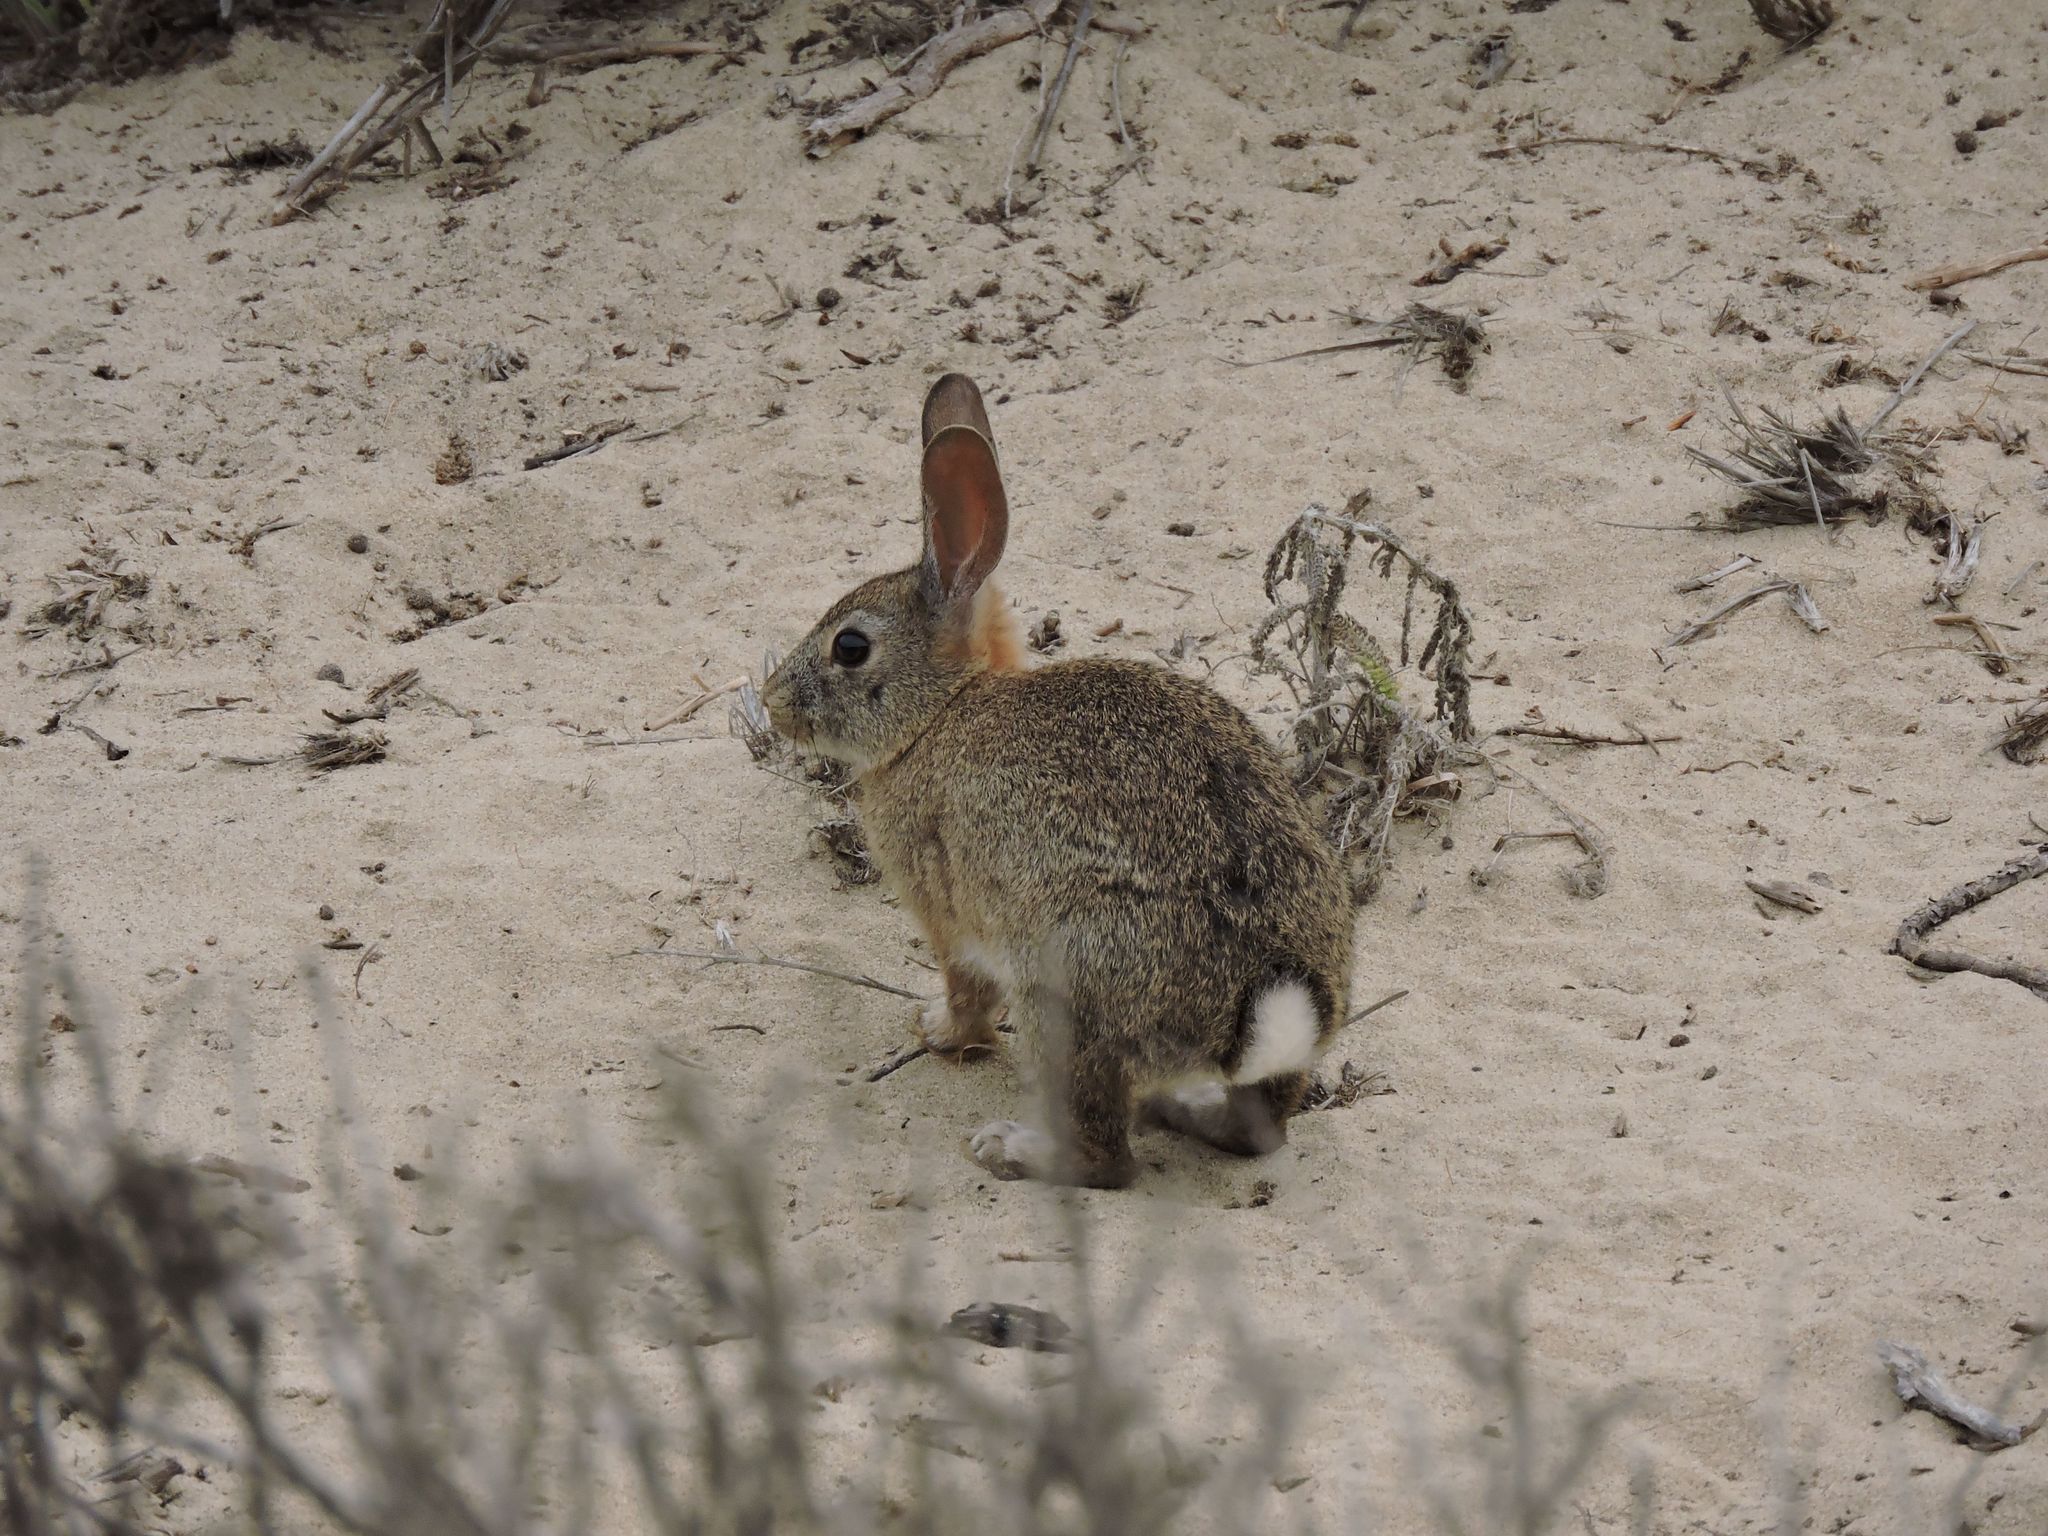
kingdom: Animalia
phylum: Chordata
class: Mammalia
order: Lagomorpha
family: Leporidae
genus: Sylvilagus
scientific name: Sylvilagus audubonii
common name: Desert cottontail
